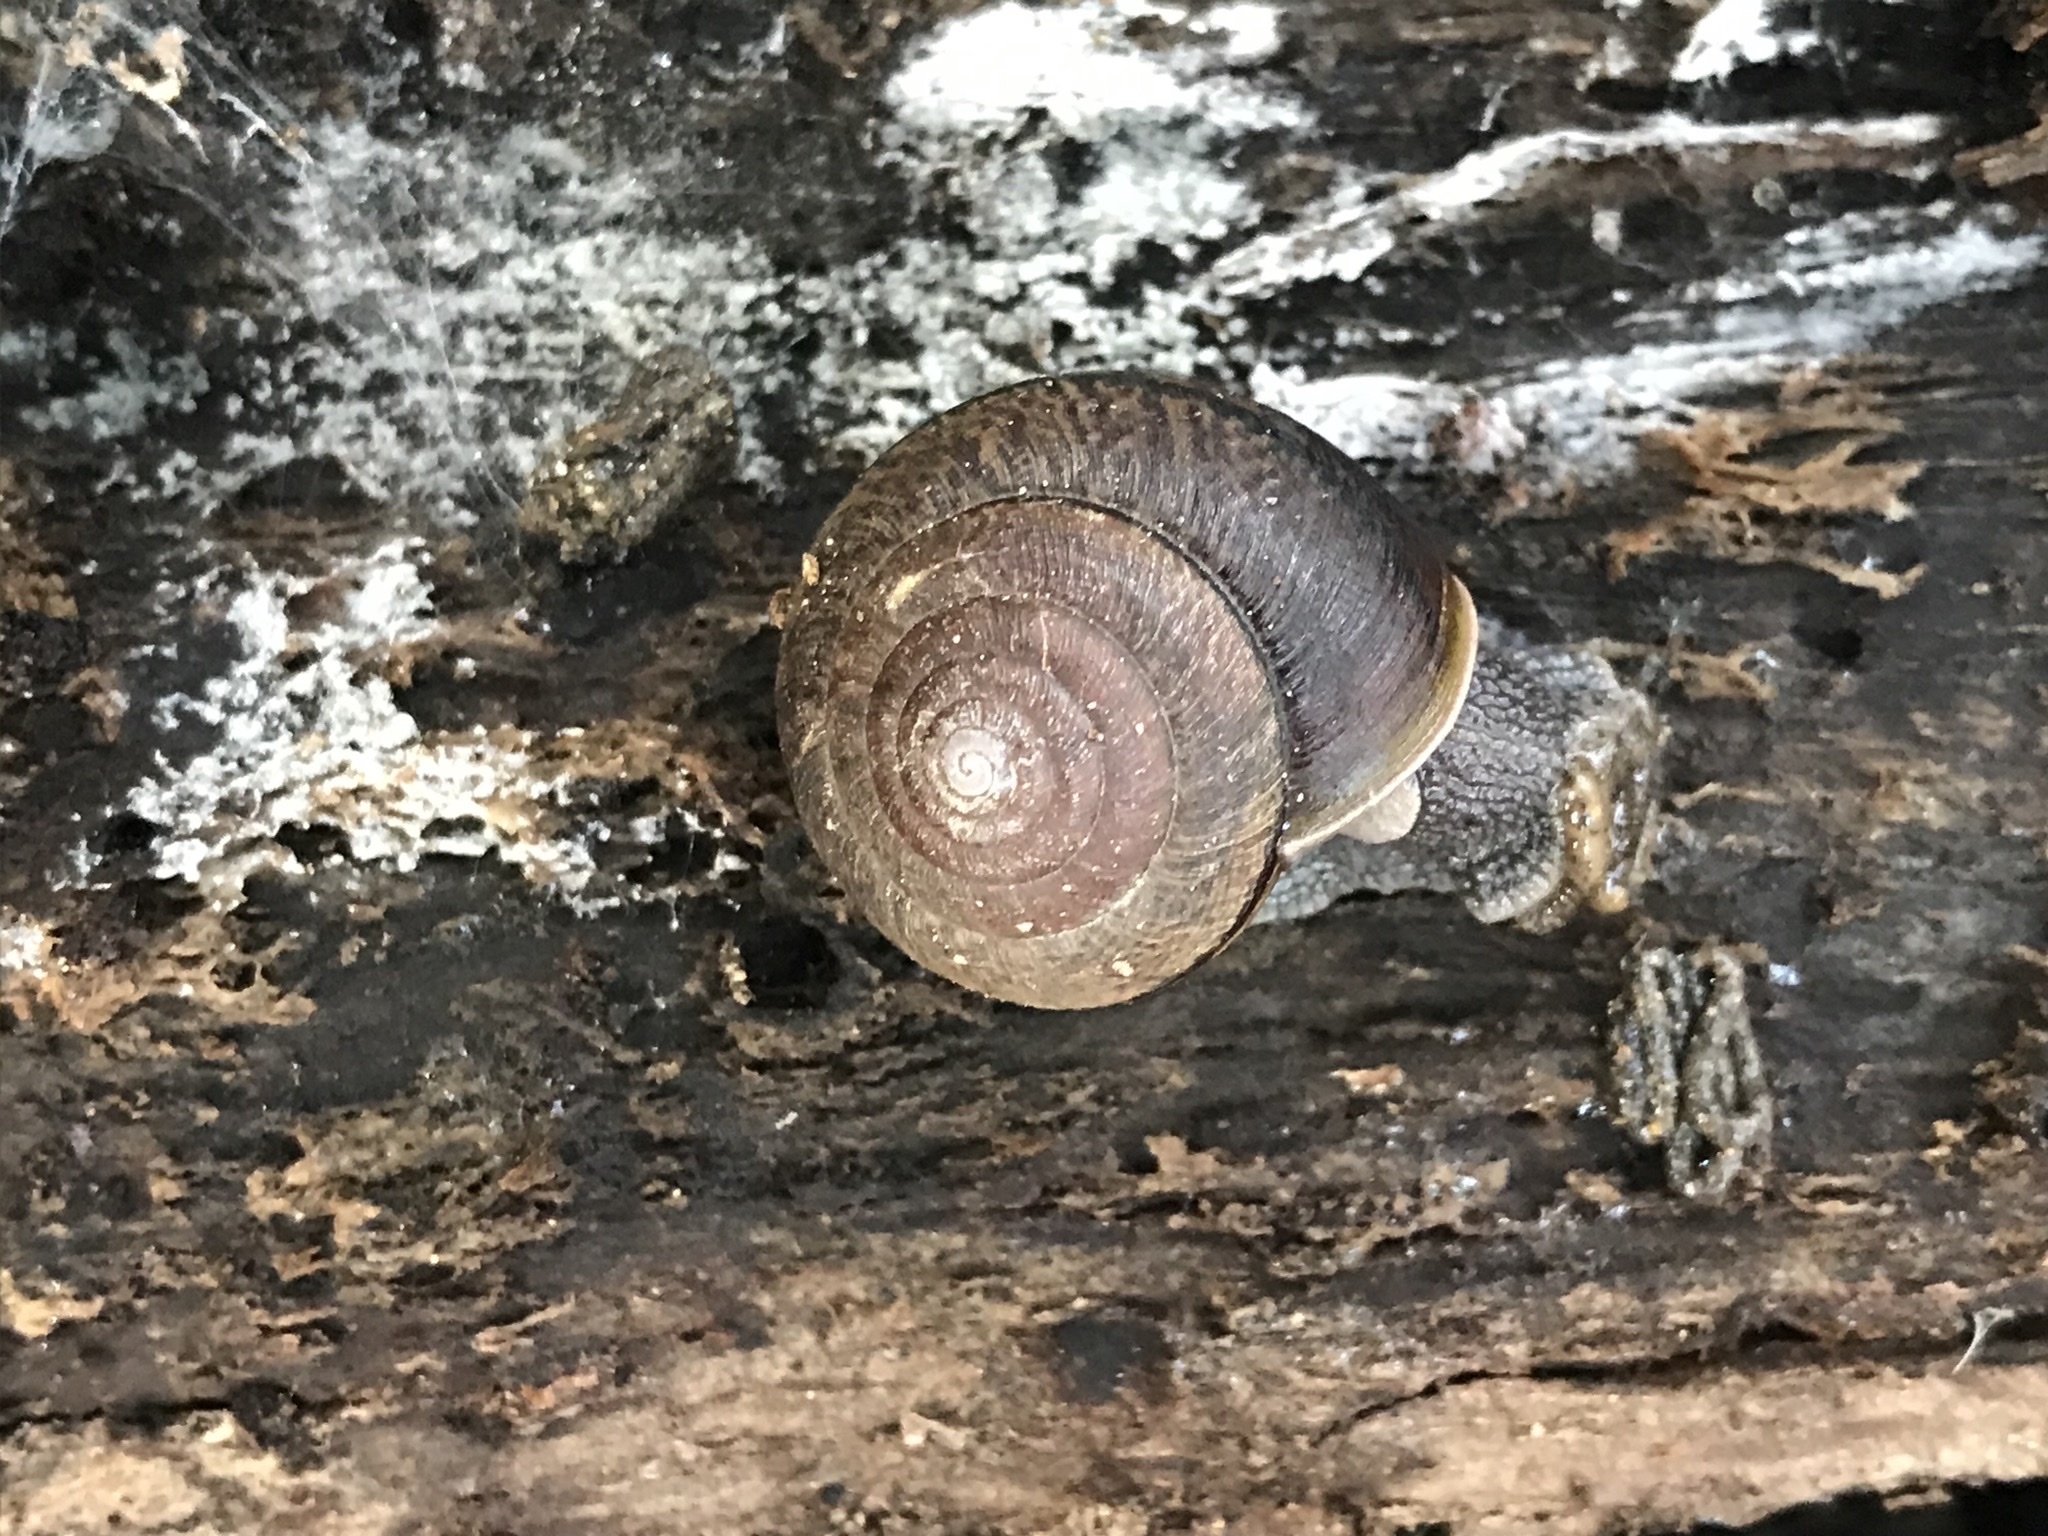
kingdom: Animalia
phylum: Mollusca
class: Gastropoda
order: Stylommatophora
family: Xanthonychidae
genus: Helminthoglypta
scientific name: Helminthoglypta arrosa
